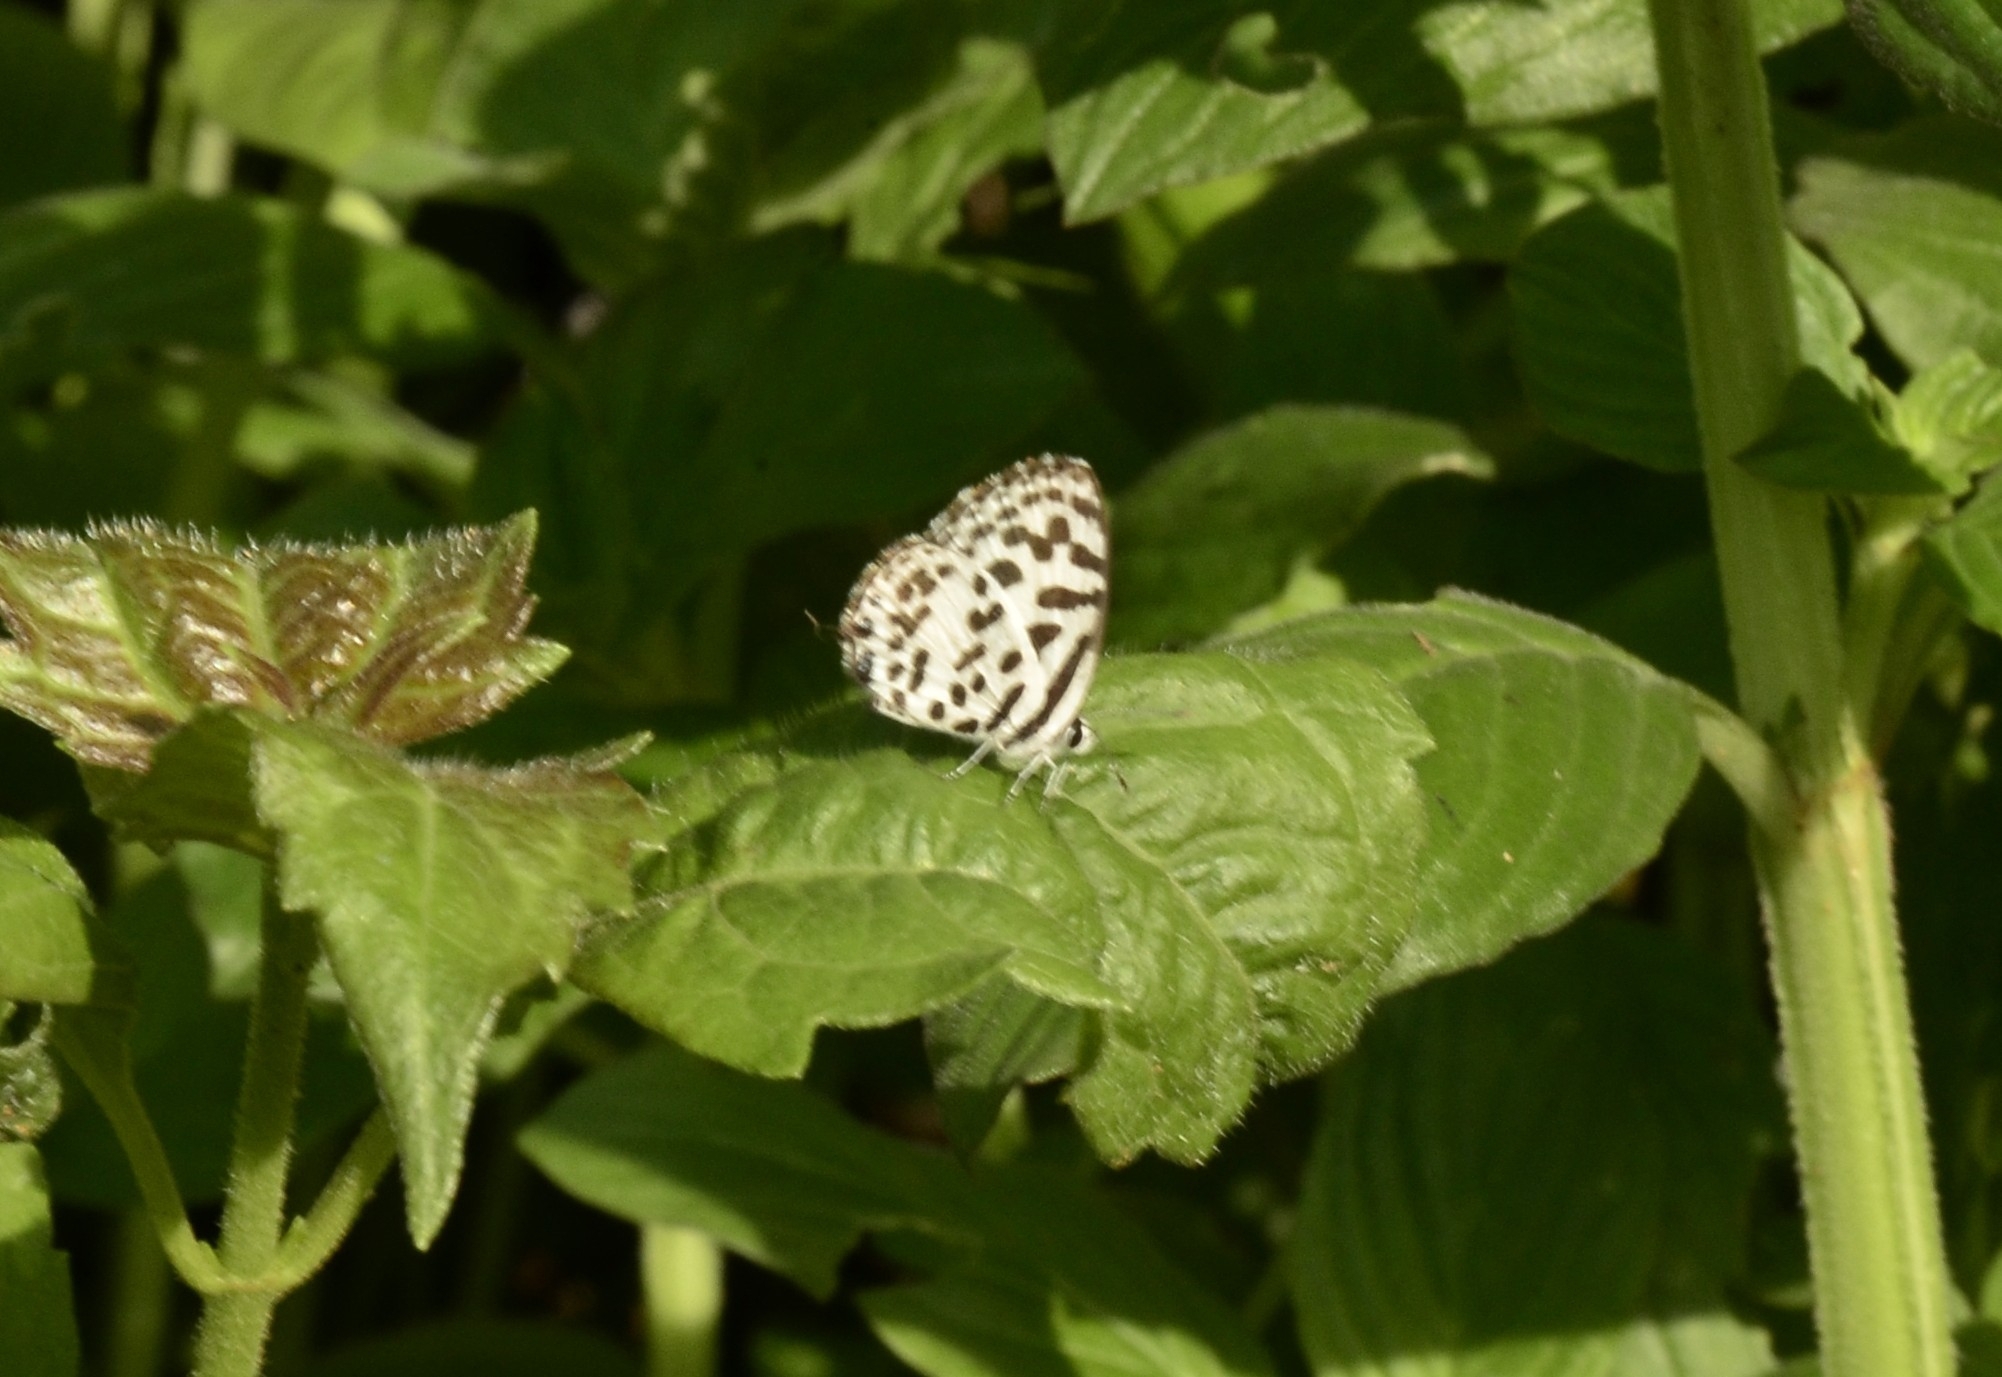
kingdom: Animalia
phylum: Arthropoda
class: Insecta
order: Lepidoptera
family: Lycaenidae
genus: Castalius
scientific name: Castalius rosimon
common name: Common pierrot
